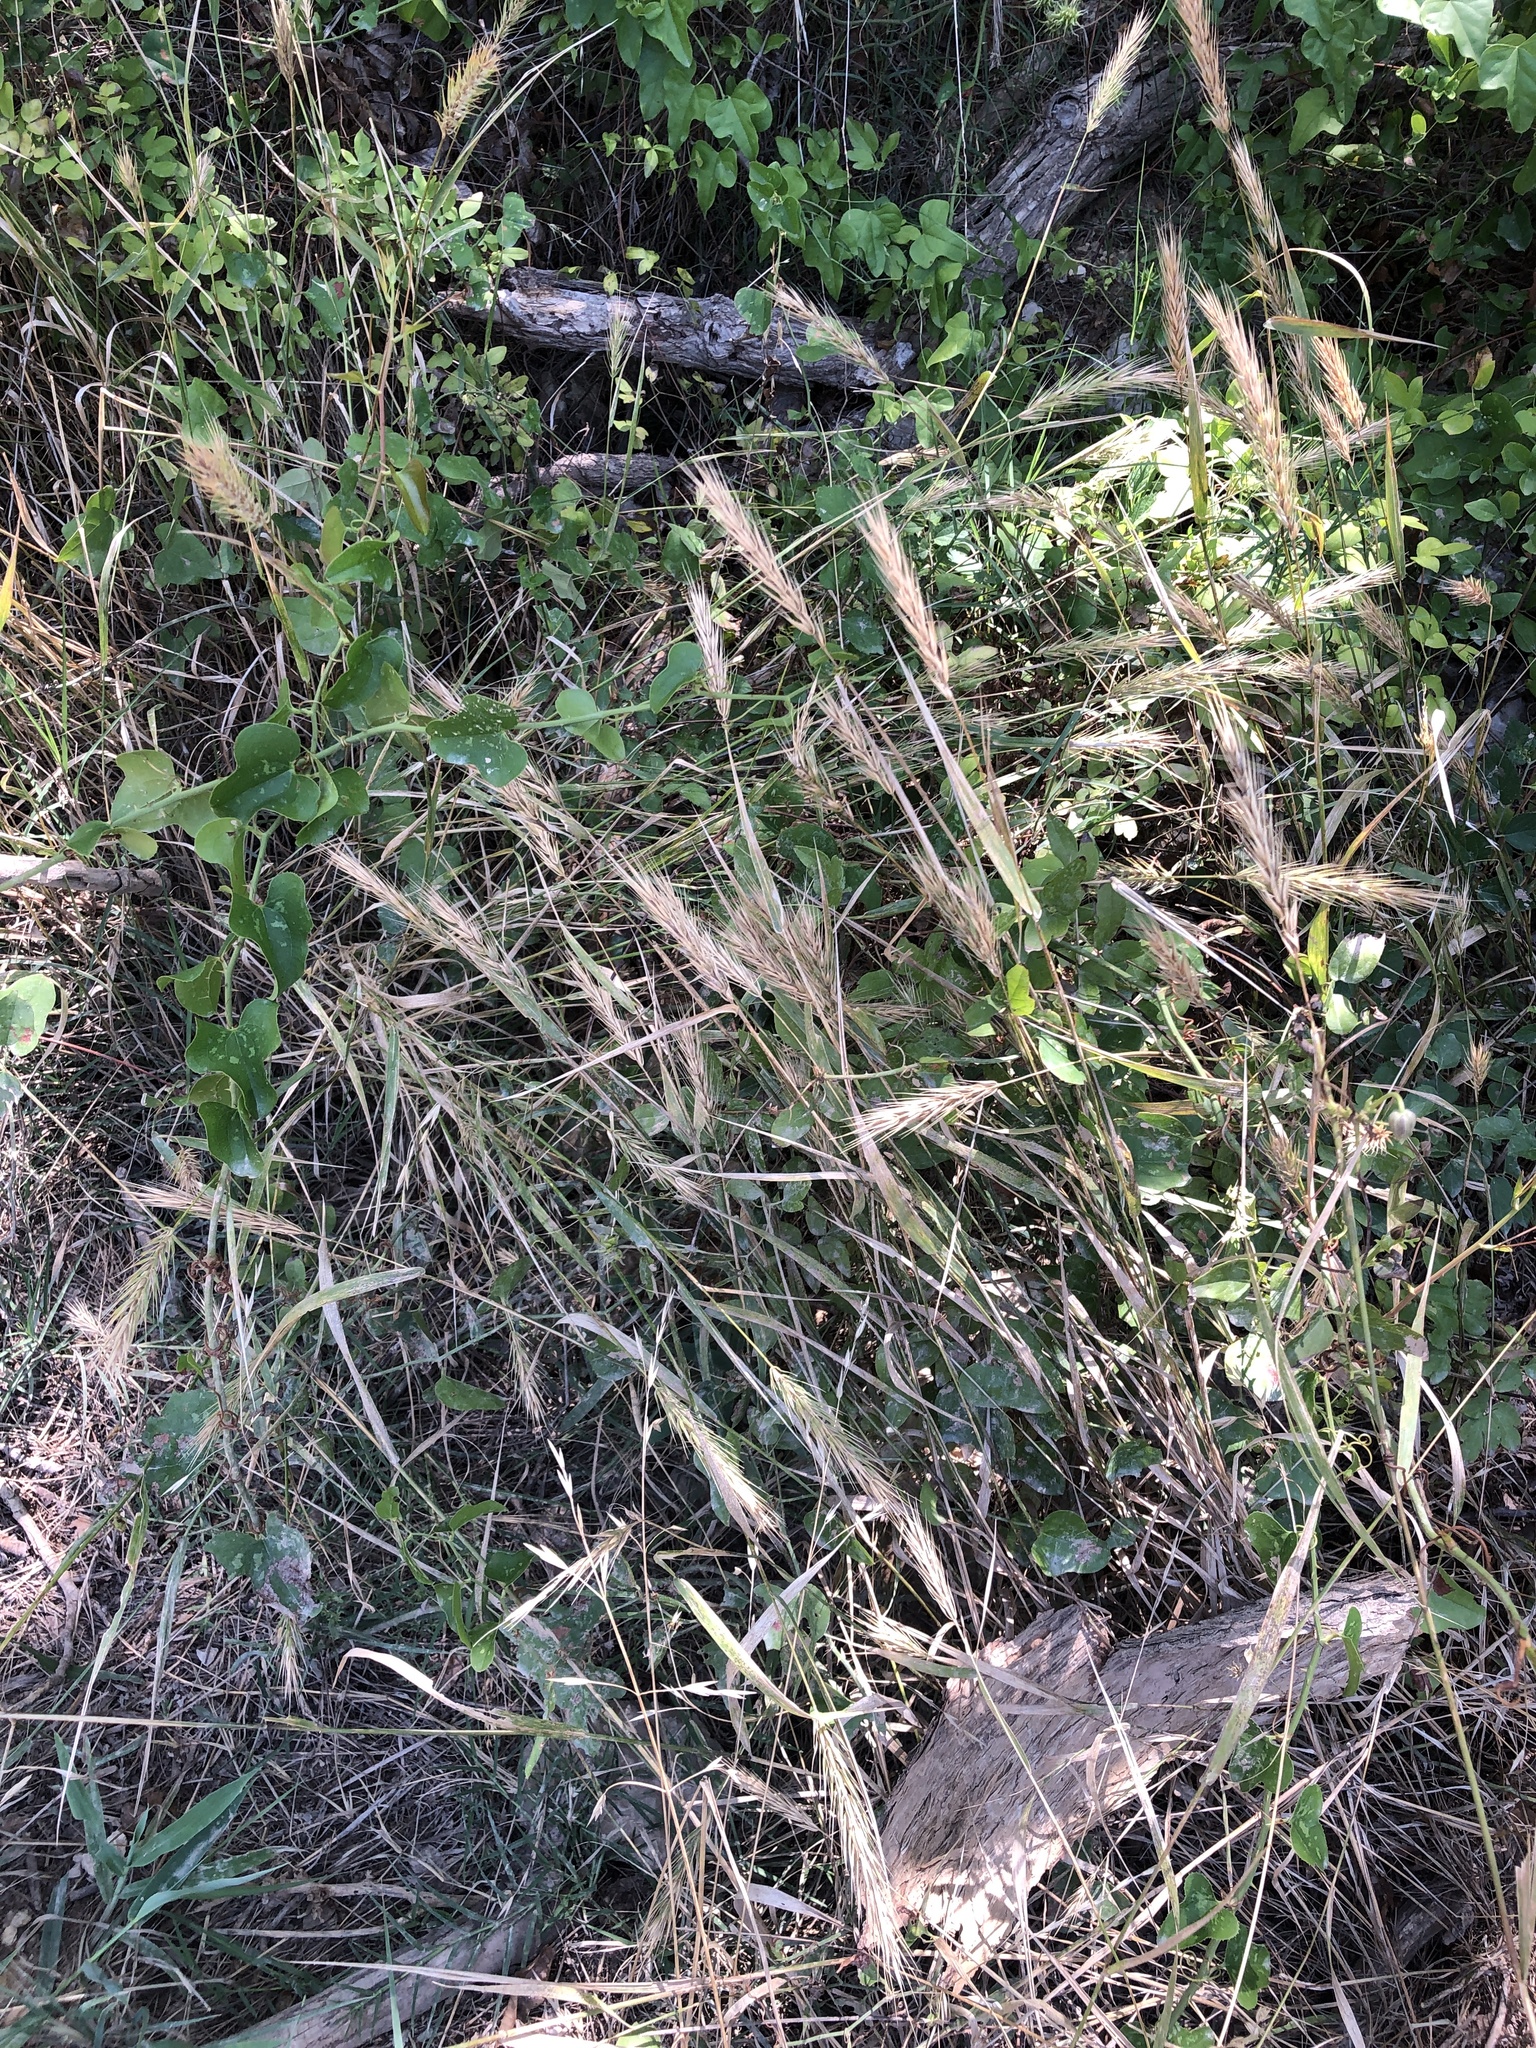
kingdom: Plantae
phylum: Tracheophyta
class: Liliopsida
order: Poales
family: Poaceae
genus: Elymus
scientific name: Elymus virginicus
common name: Common eastern wildrye
